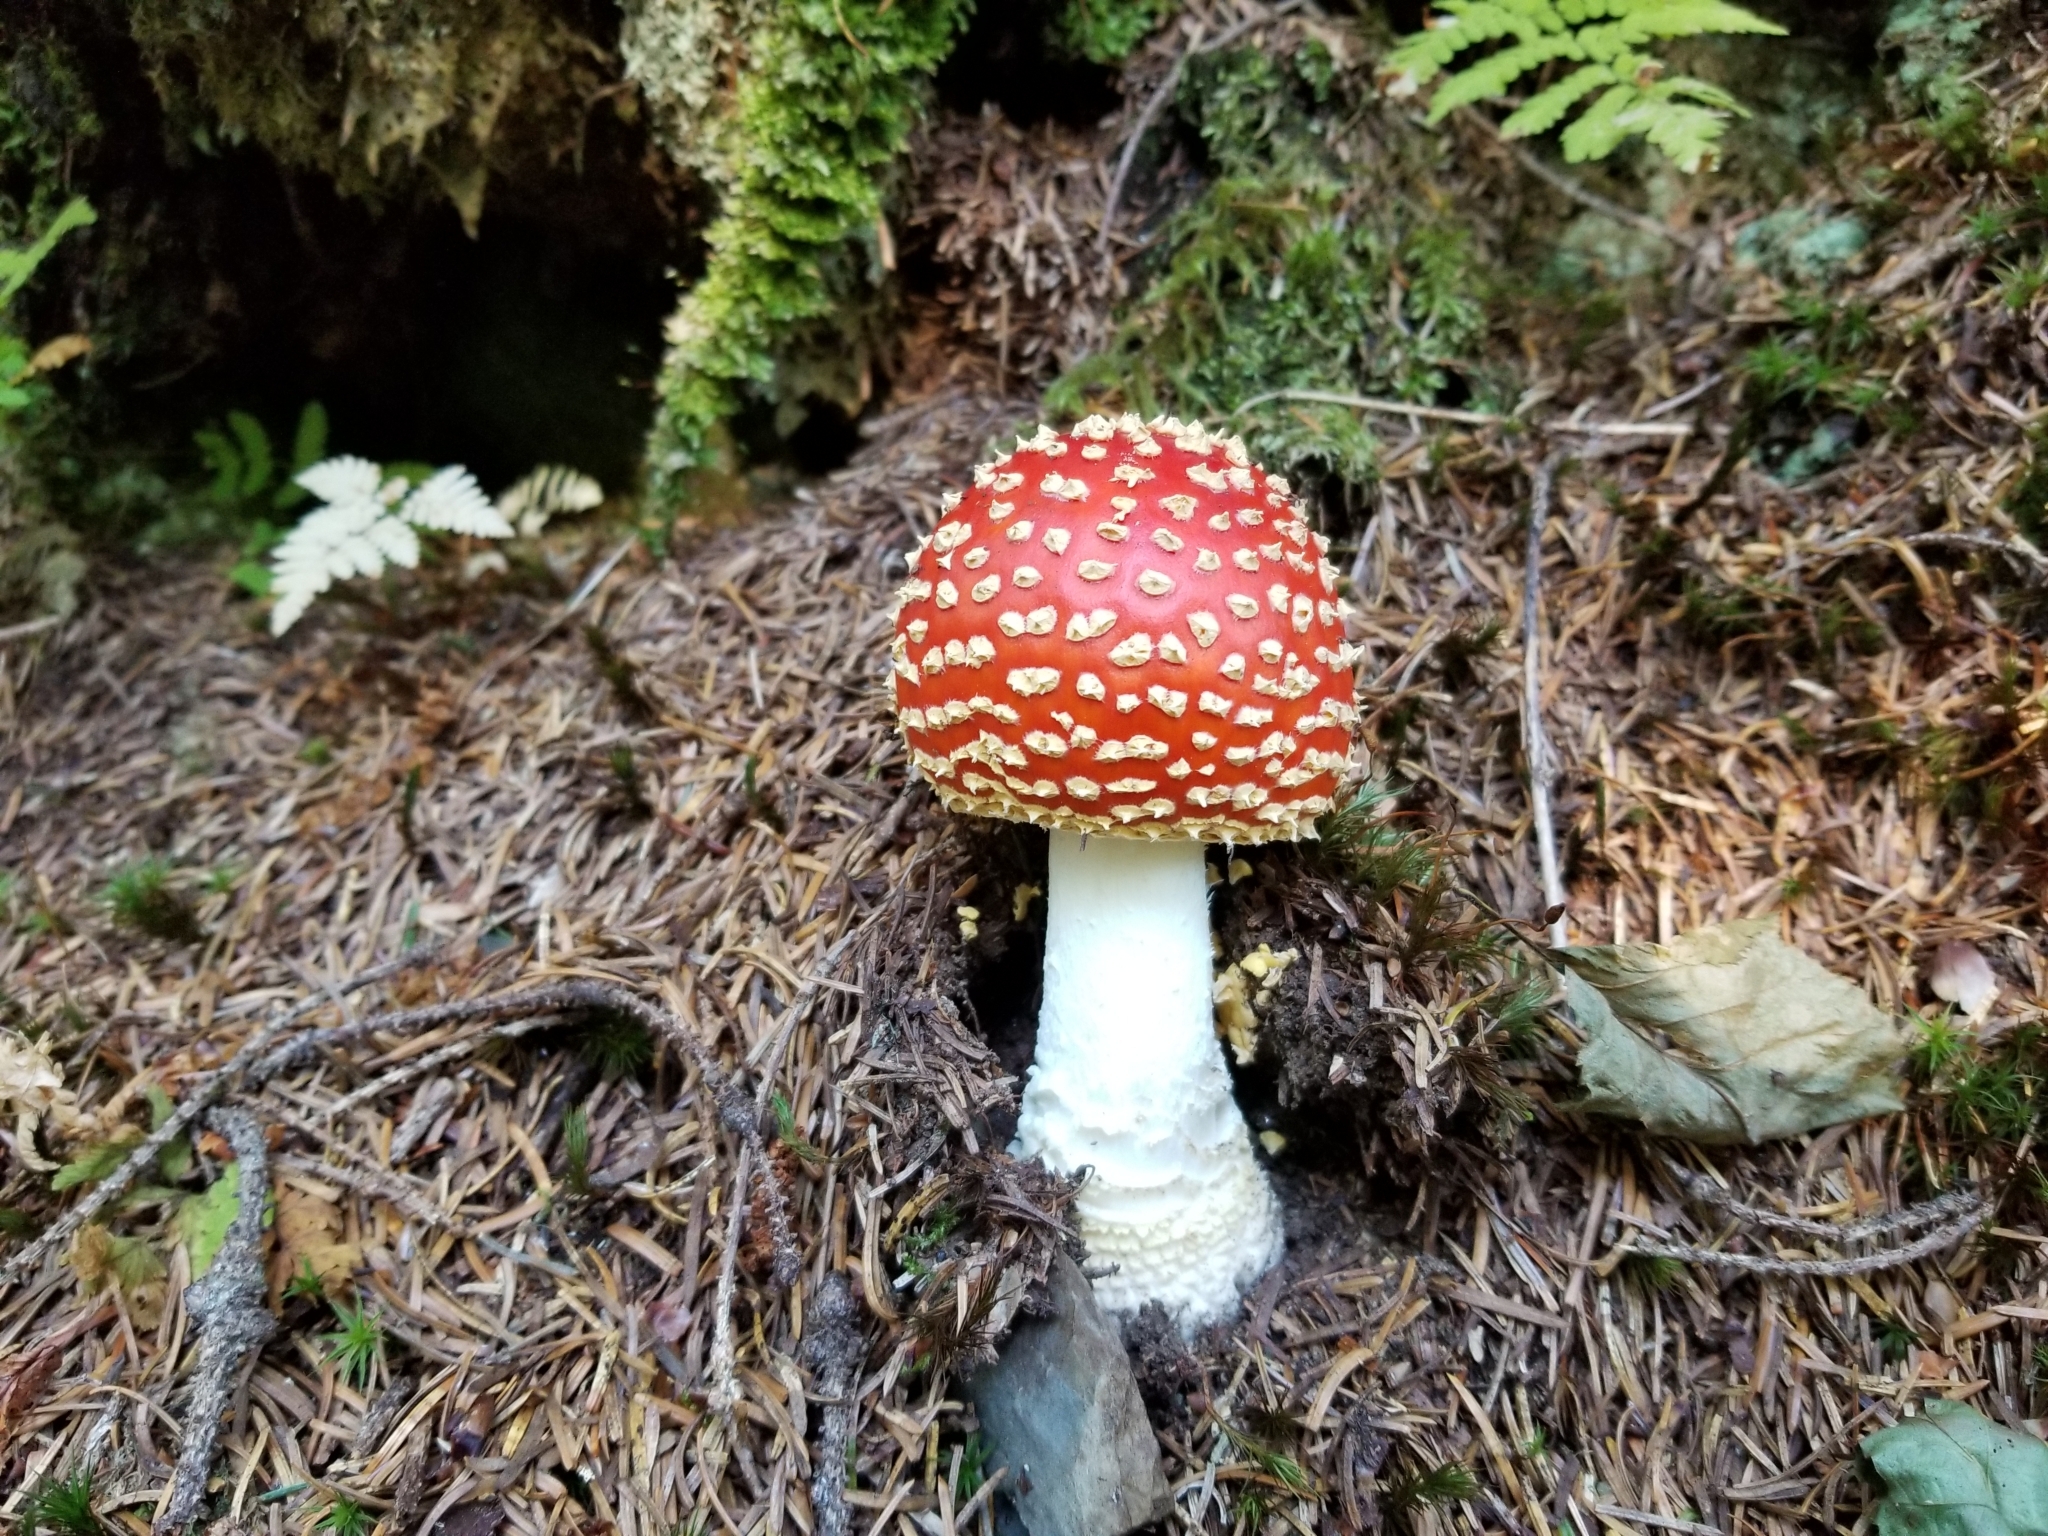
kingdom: Fungi
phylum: Basidiomycota
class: Agaricomycetes
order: Agaricales
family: Amanitaceae
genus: Amanita
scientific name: Amanita muscaria
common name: Fly agaric
